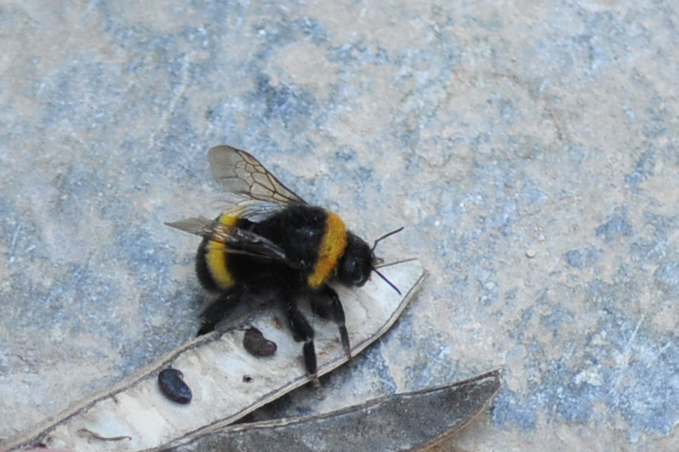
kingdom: Animalia
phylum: Arthropoda
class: Insecta
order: Hymenoptera
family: Apidae
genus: Bombus
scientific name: Bombus terrestris
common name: Buff-tailed bumblebee
